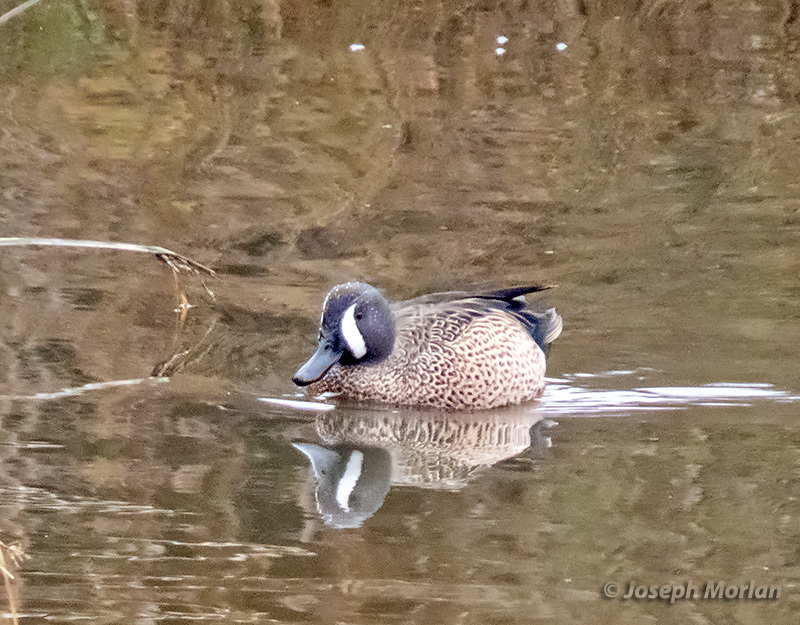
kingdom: Animalia
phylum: Chordata
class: Aves
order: Anseriformes
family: Anatidae
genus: Spatula
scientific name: Spatula discors
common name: Blue-winged teal
